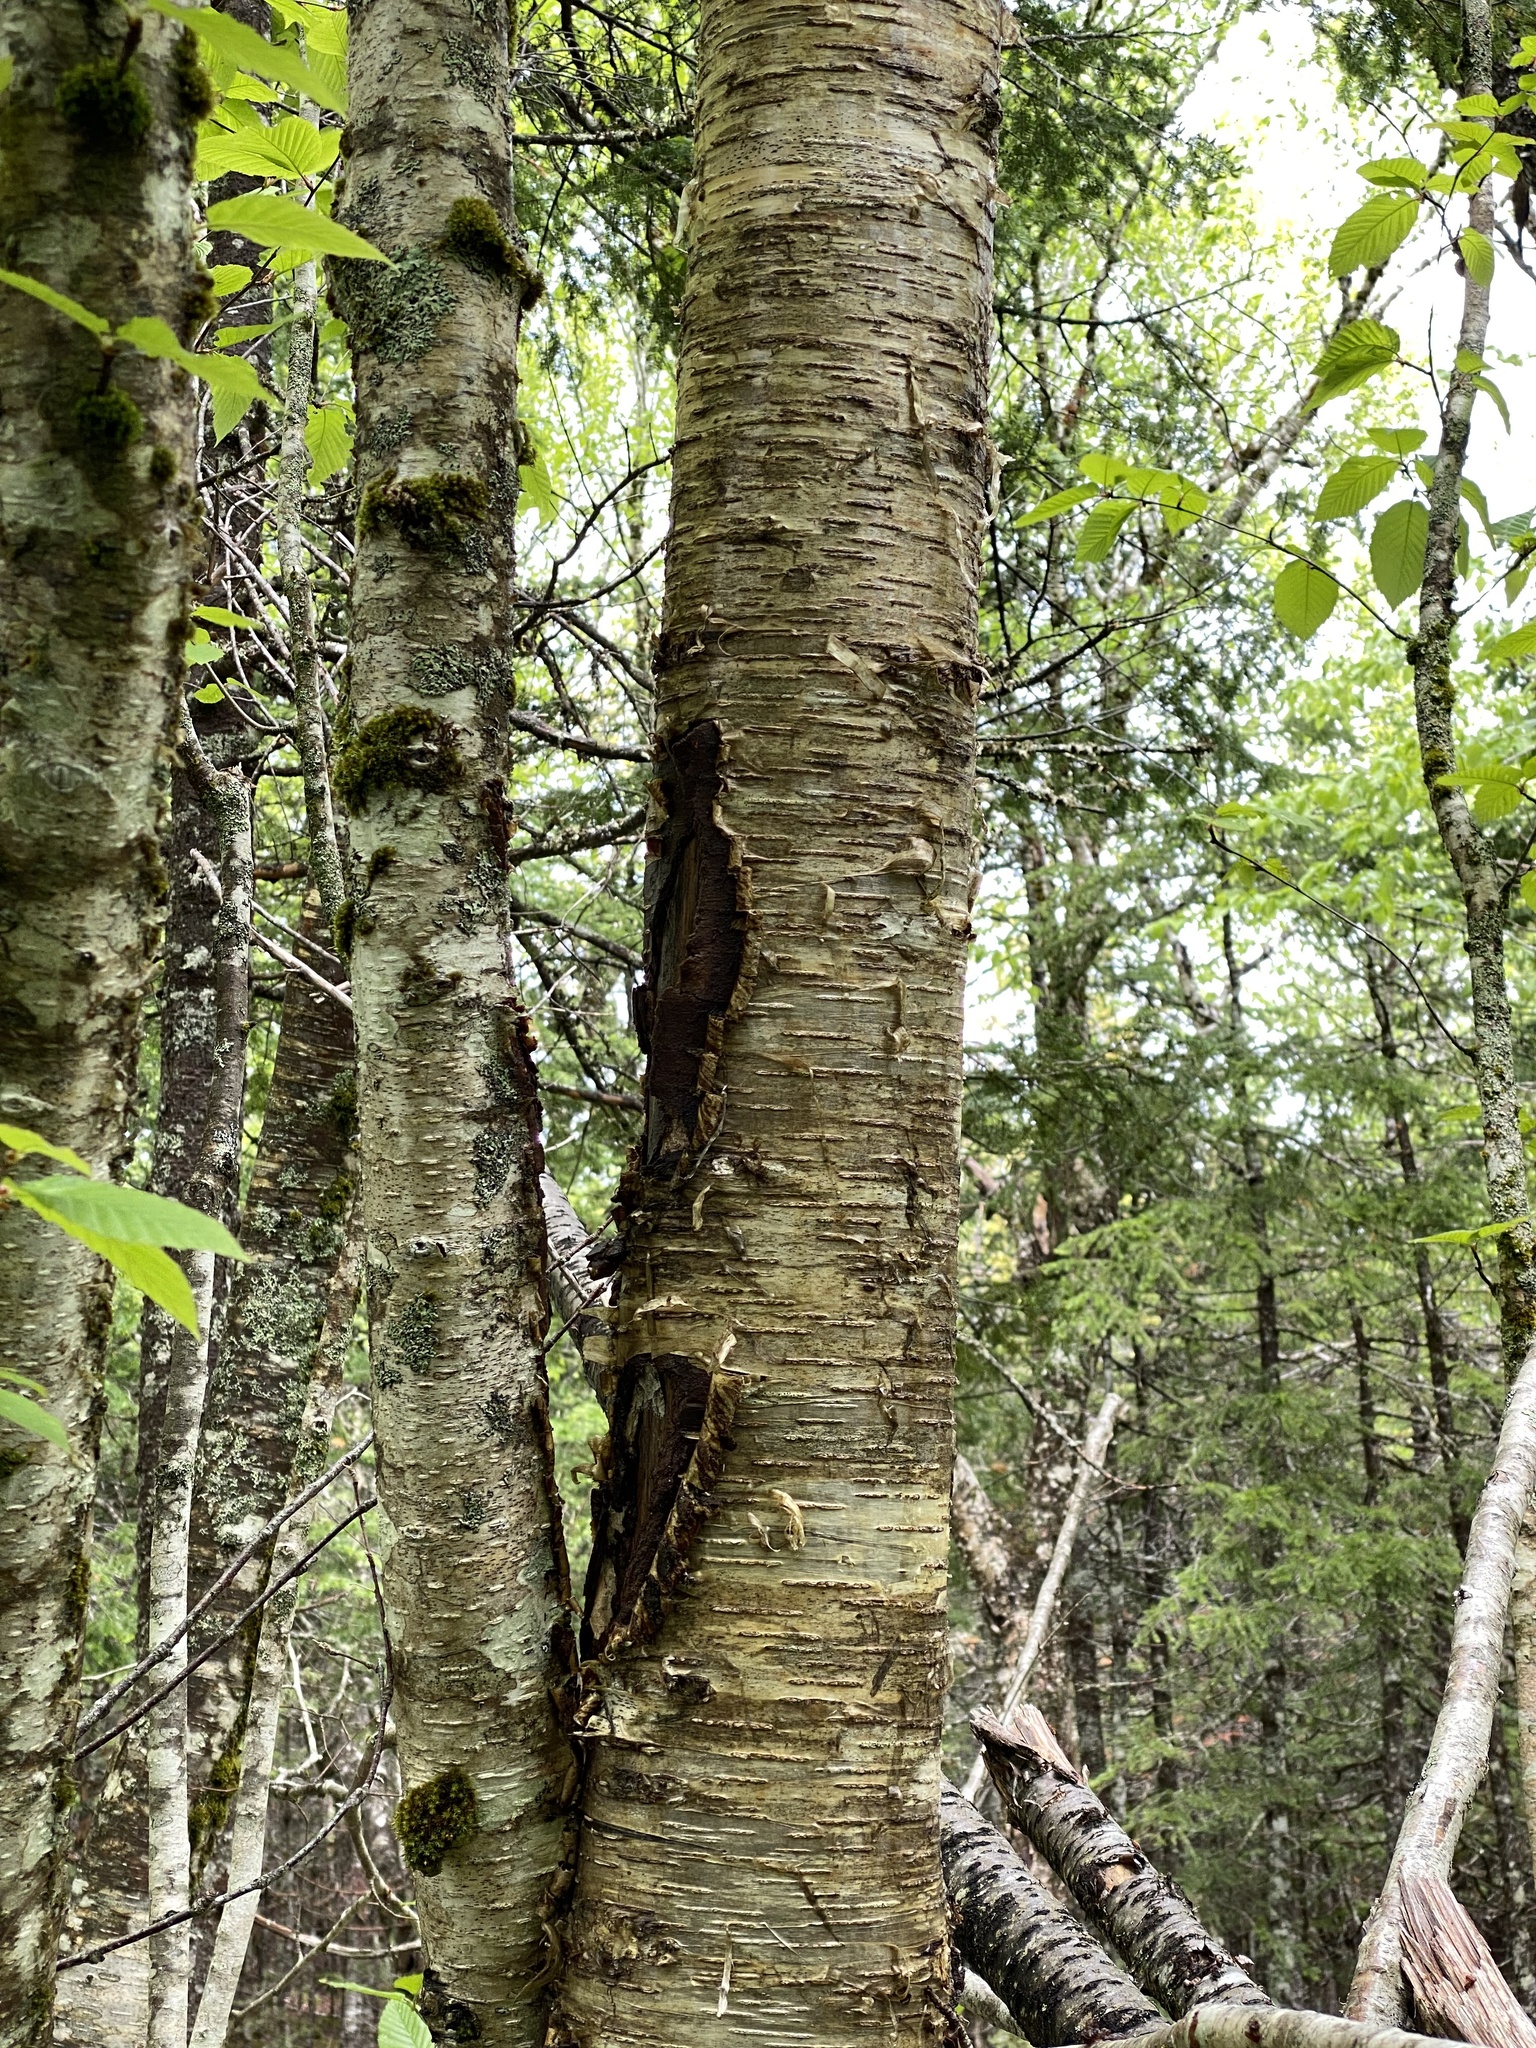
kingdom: Plantae
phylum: Tracheophyta
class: Magnoliopsida
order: Fagales
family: Betulaceae
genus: Betula
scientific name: Betula alleghaniensis
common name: Yellow birch
